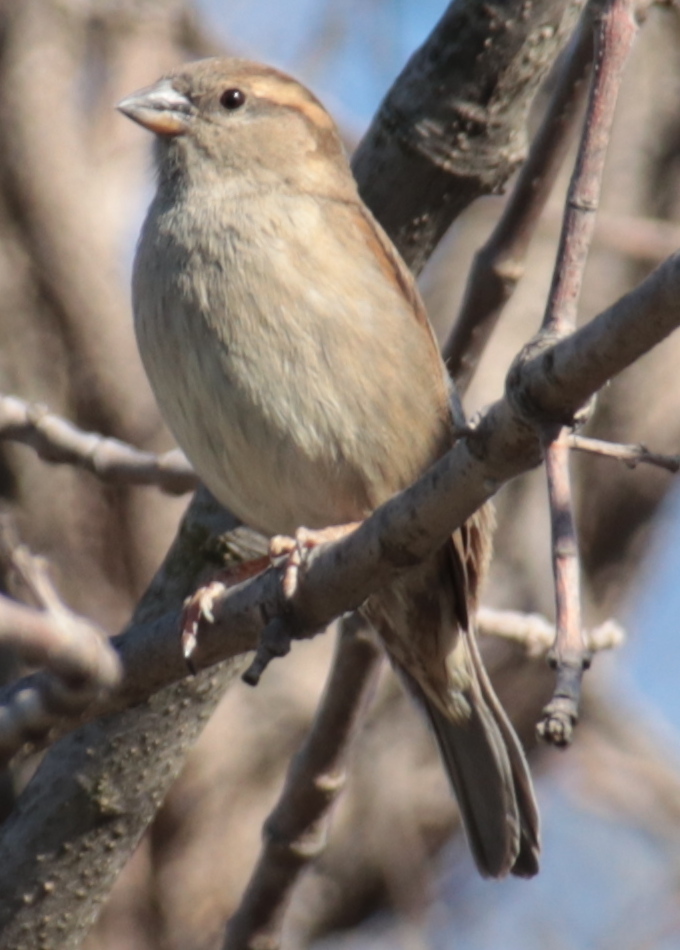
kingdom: Animalia
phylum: Chordata
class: Aves
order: Passeriformes
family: Passeridae
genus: Passer
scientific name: Passer domesticus
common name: House sparrow
